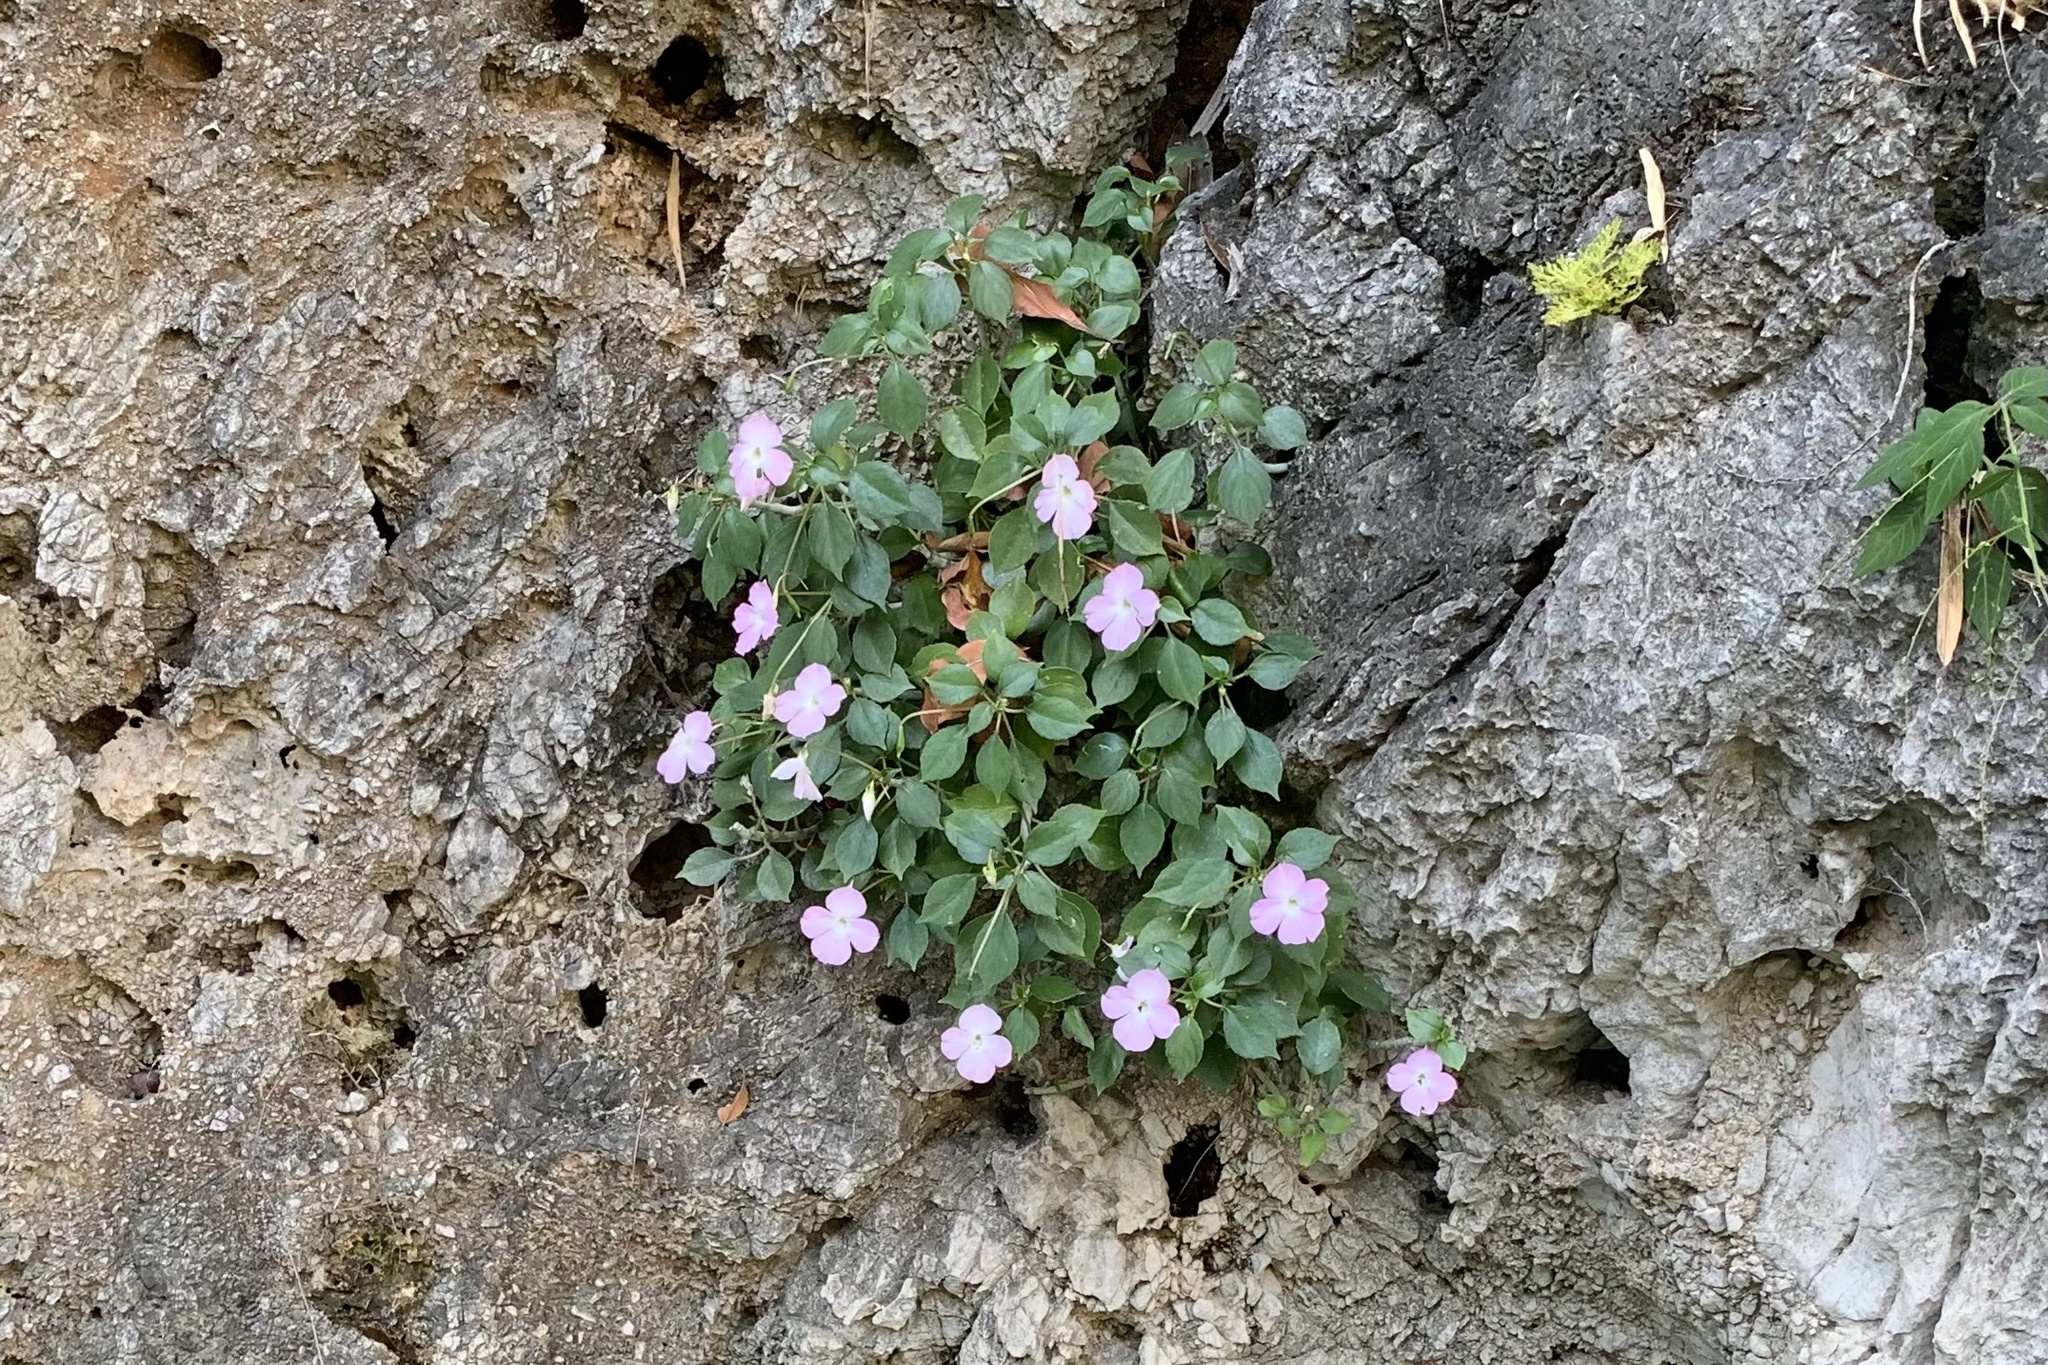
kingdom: Plantae
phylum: Tracheophyta
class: Magnoliopsida
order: Ericales
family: Balsaminaceae
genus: Impatiens
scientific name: Impatiens sirindhorniae
